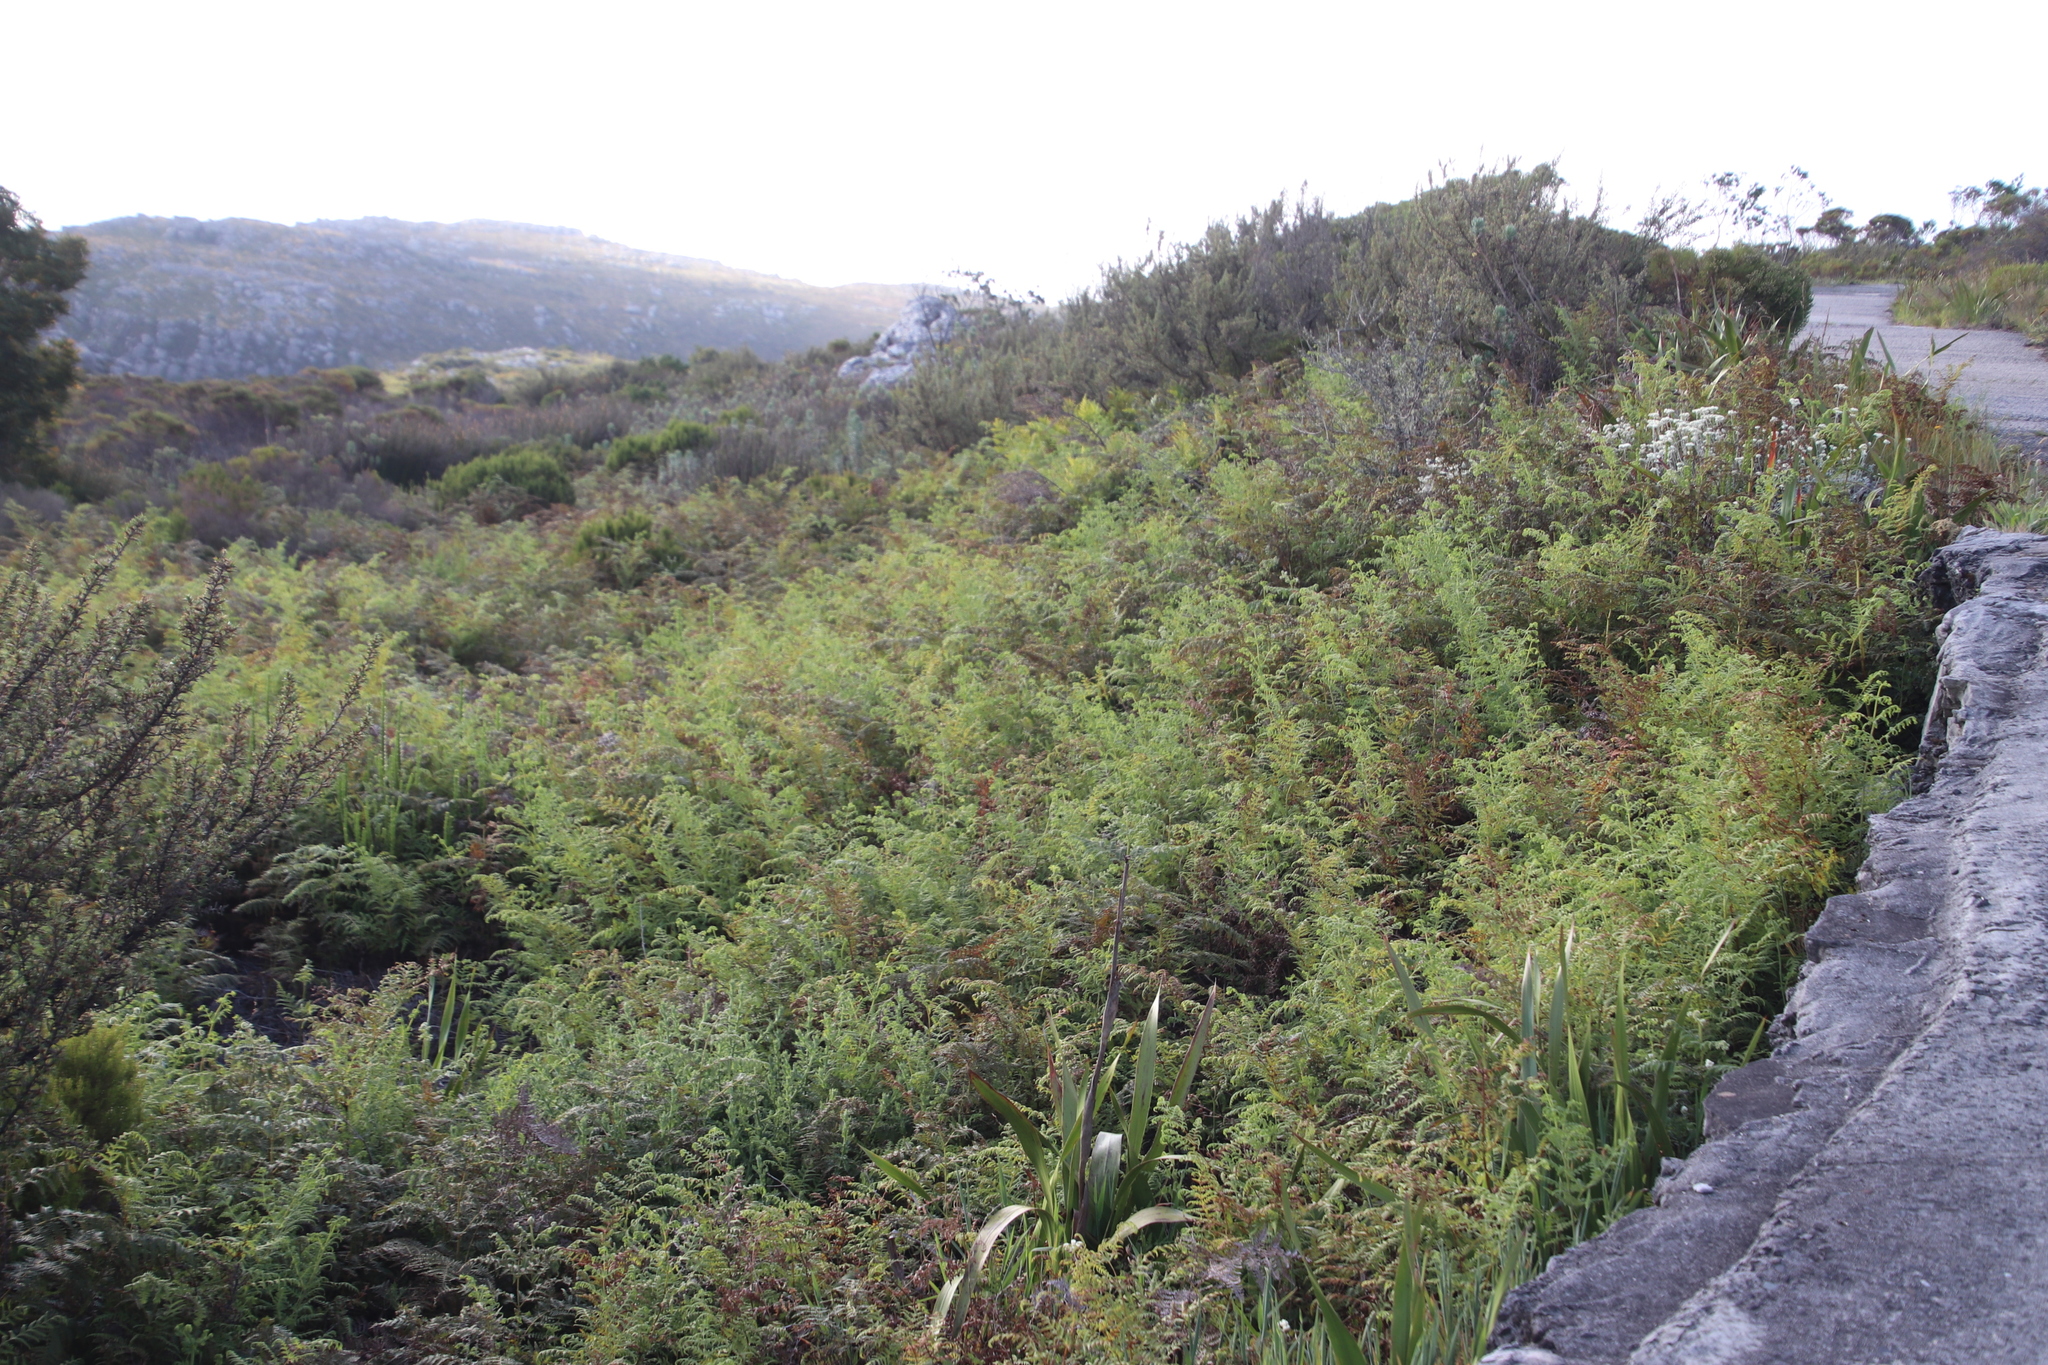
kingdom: Plantae
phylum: Tracheophyta
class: Polypodiopsida
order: Polypodiales
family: Dennstaedtiaceae
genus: Pteridium
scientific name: Pteridium aquilinum
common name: Bracken
